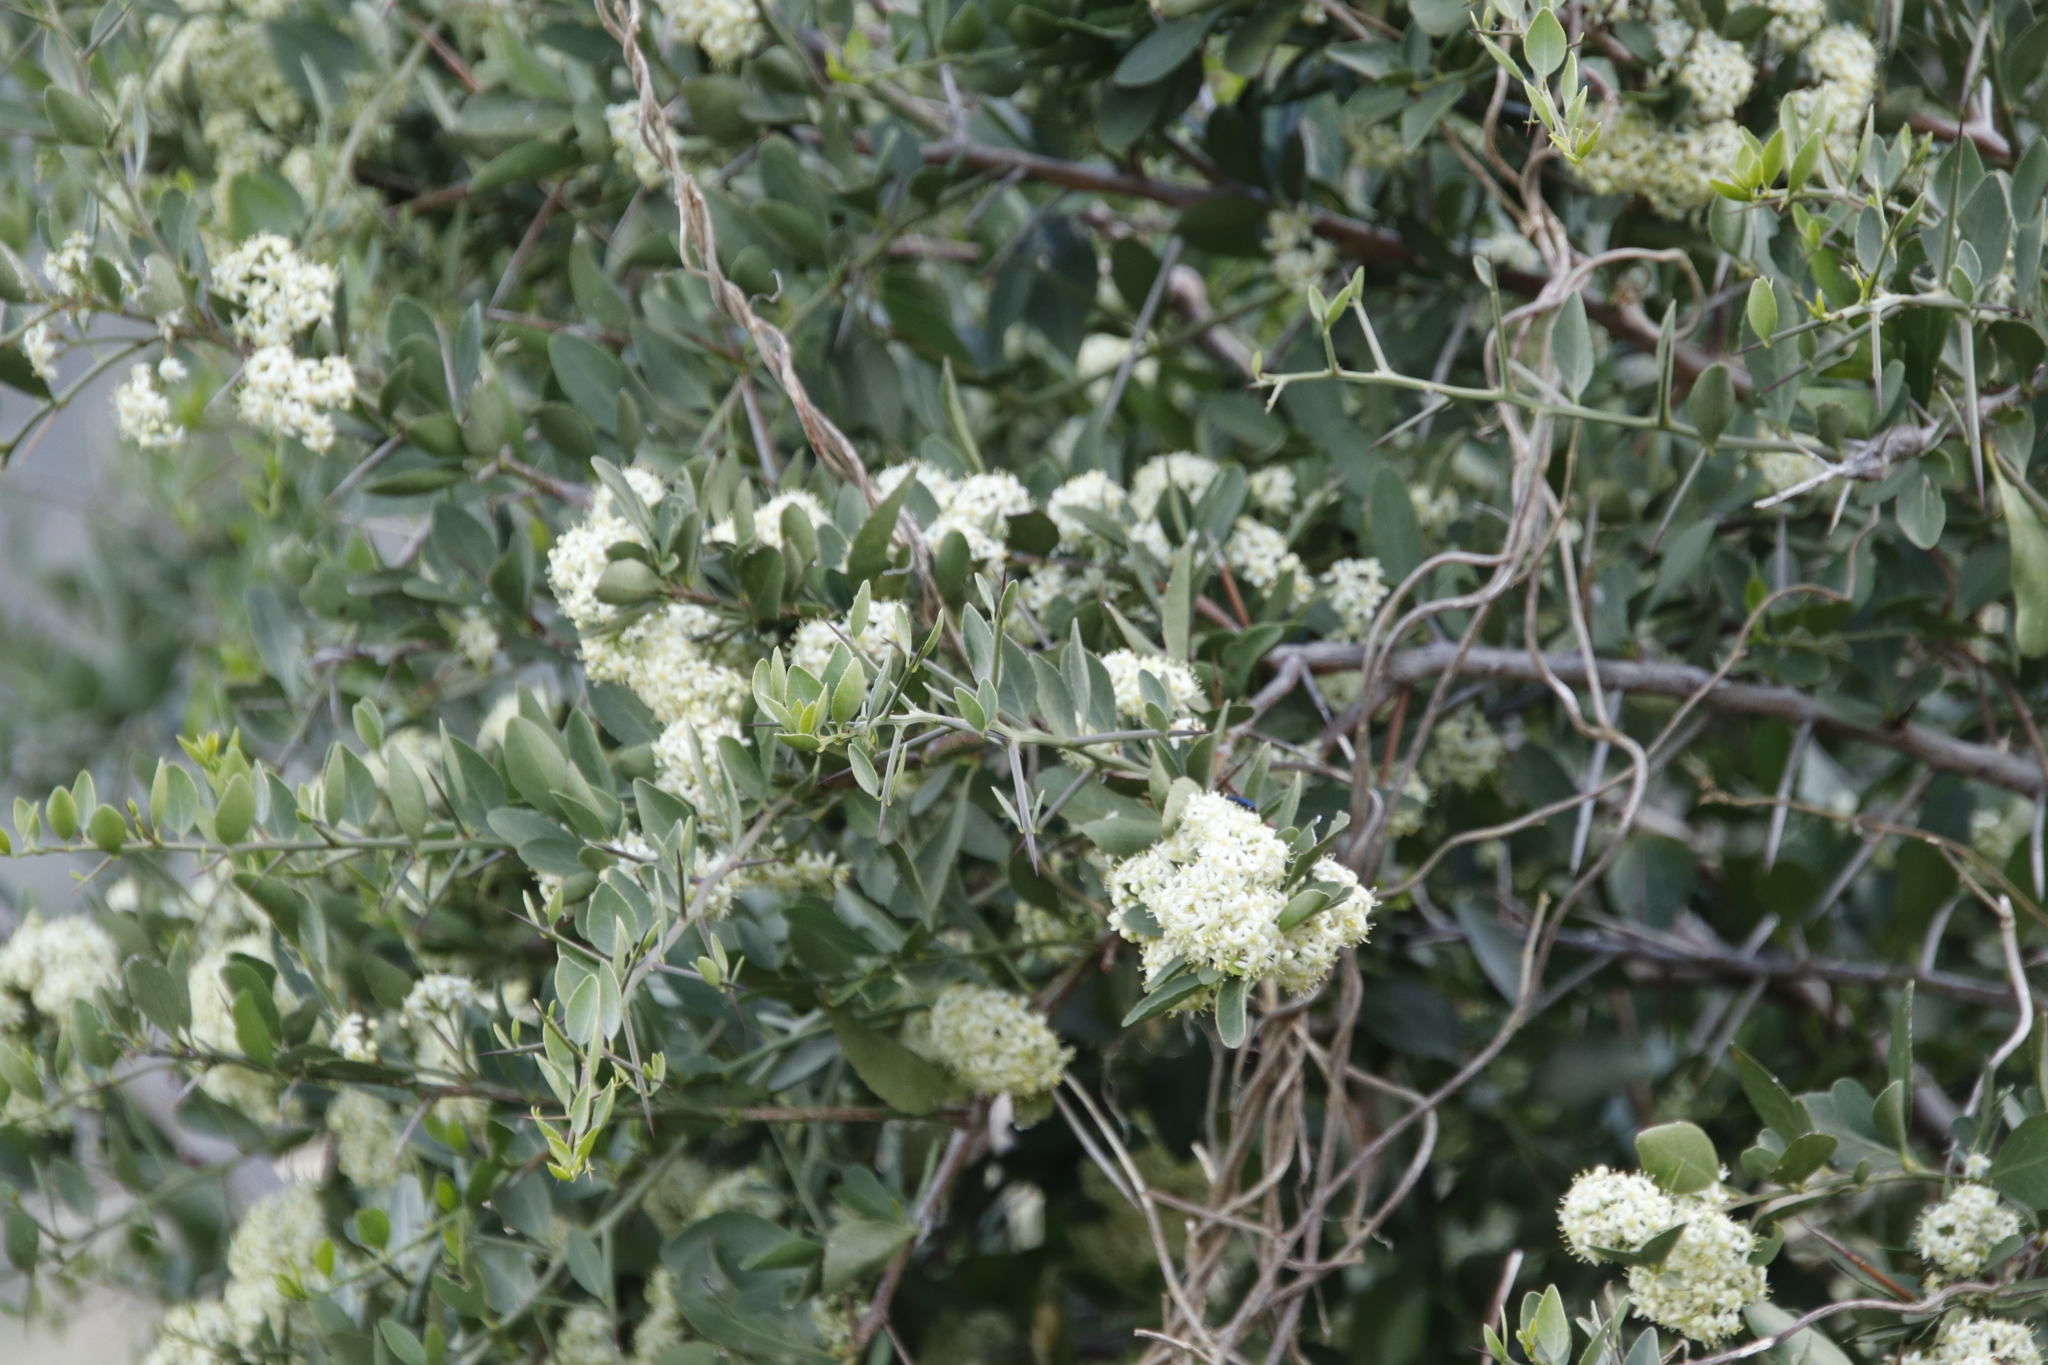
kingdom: Plantae
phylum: Tracheophyta
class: Magnoliopsida
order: Celastrales
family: Celastraceae
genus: Gymnosporia
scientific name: Gymnosporia buxifolia
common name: Common spike-thorn
